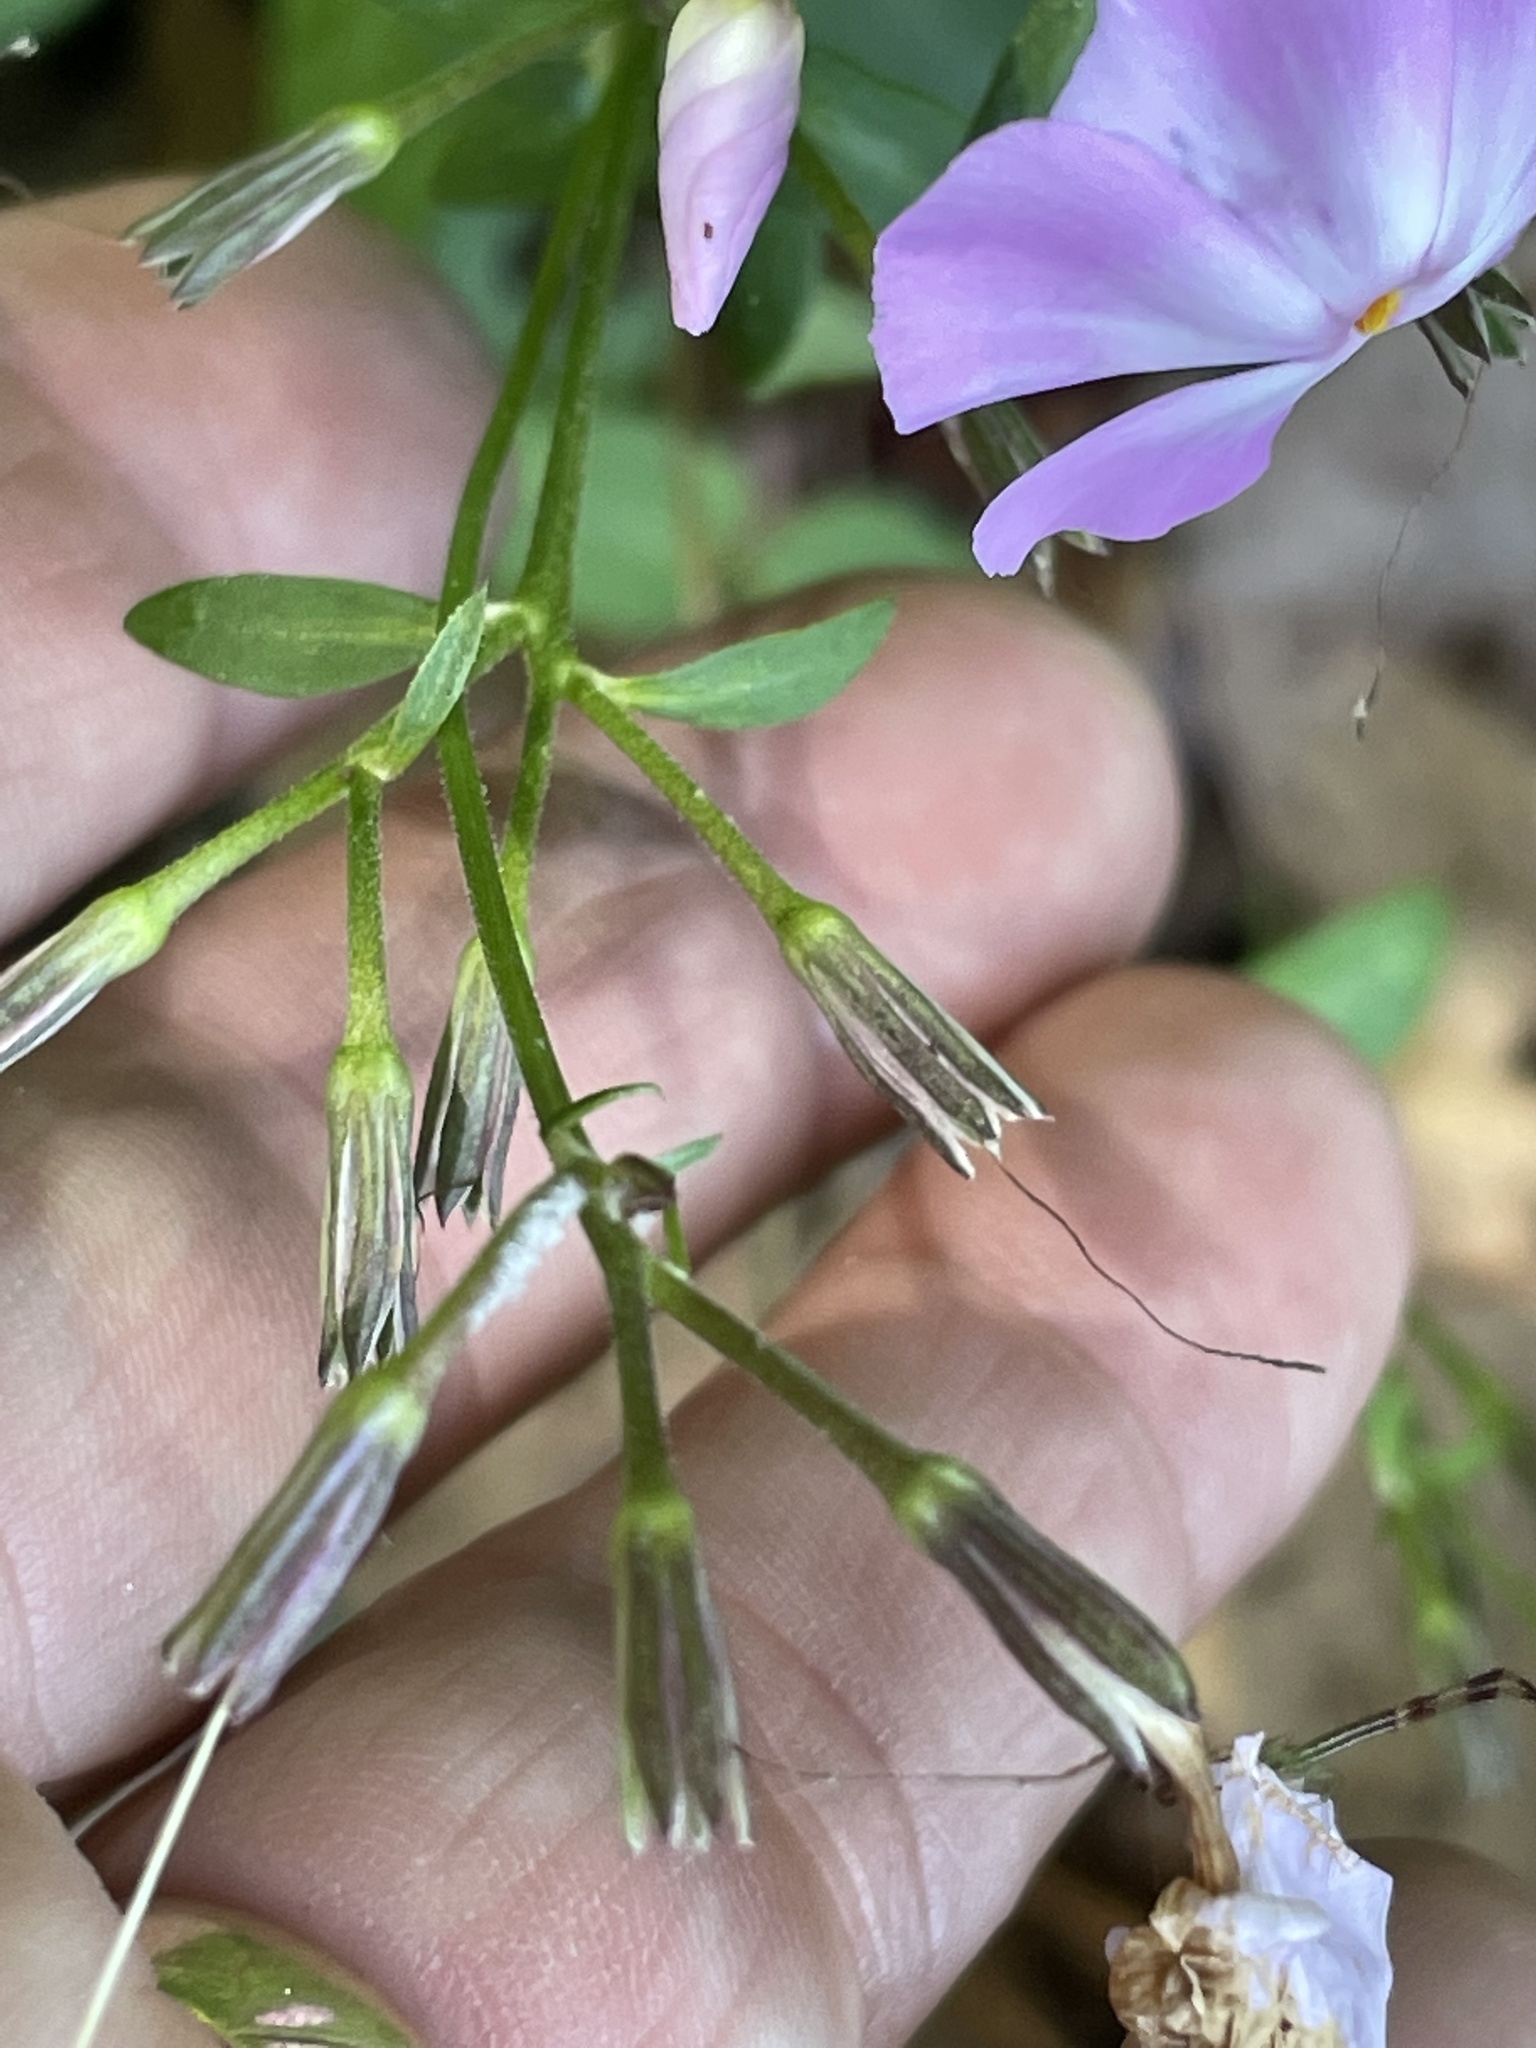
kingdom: Plantae
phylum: Tracheophyta
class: Magnoliopsida
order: Ericales
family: Polemoniaceae
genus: Phlox
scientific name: Phlox ovata
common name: Mountain phlox
